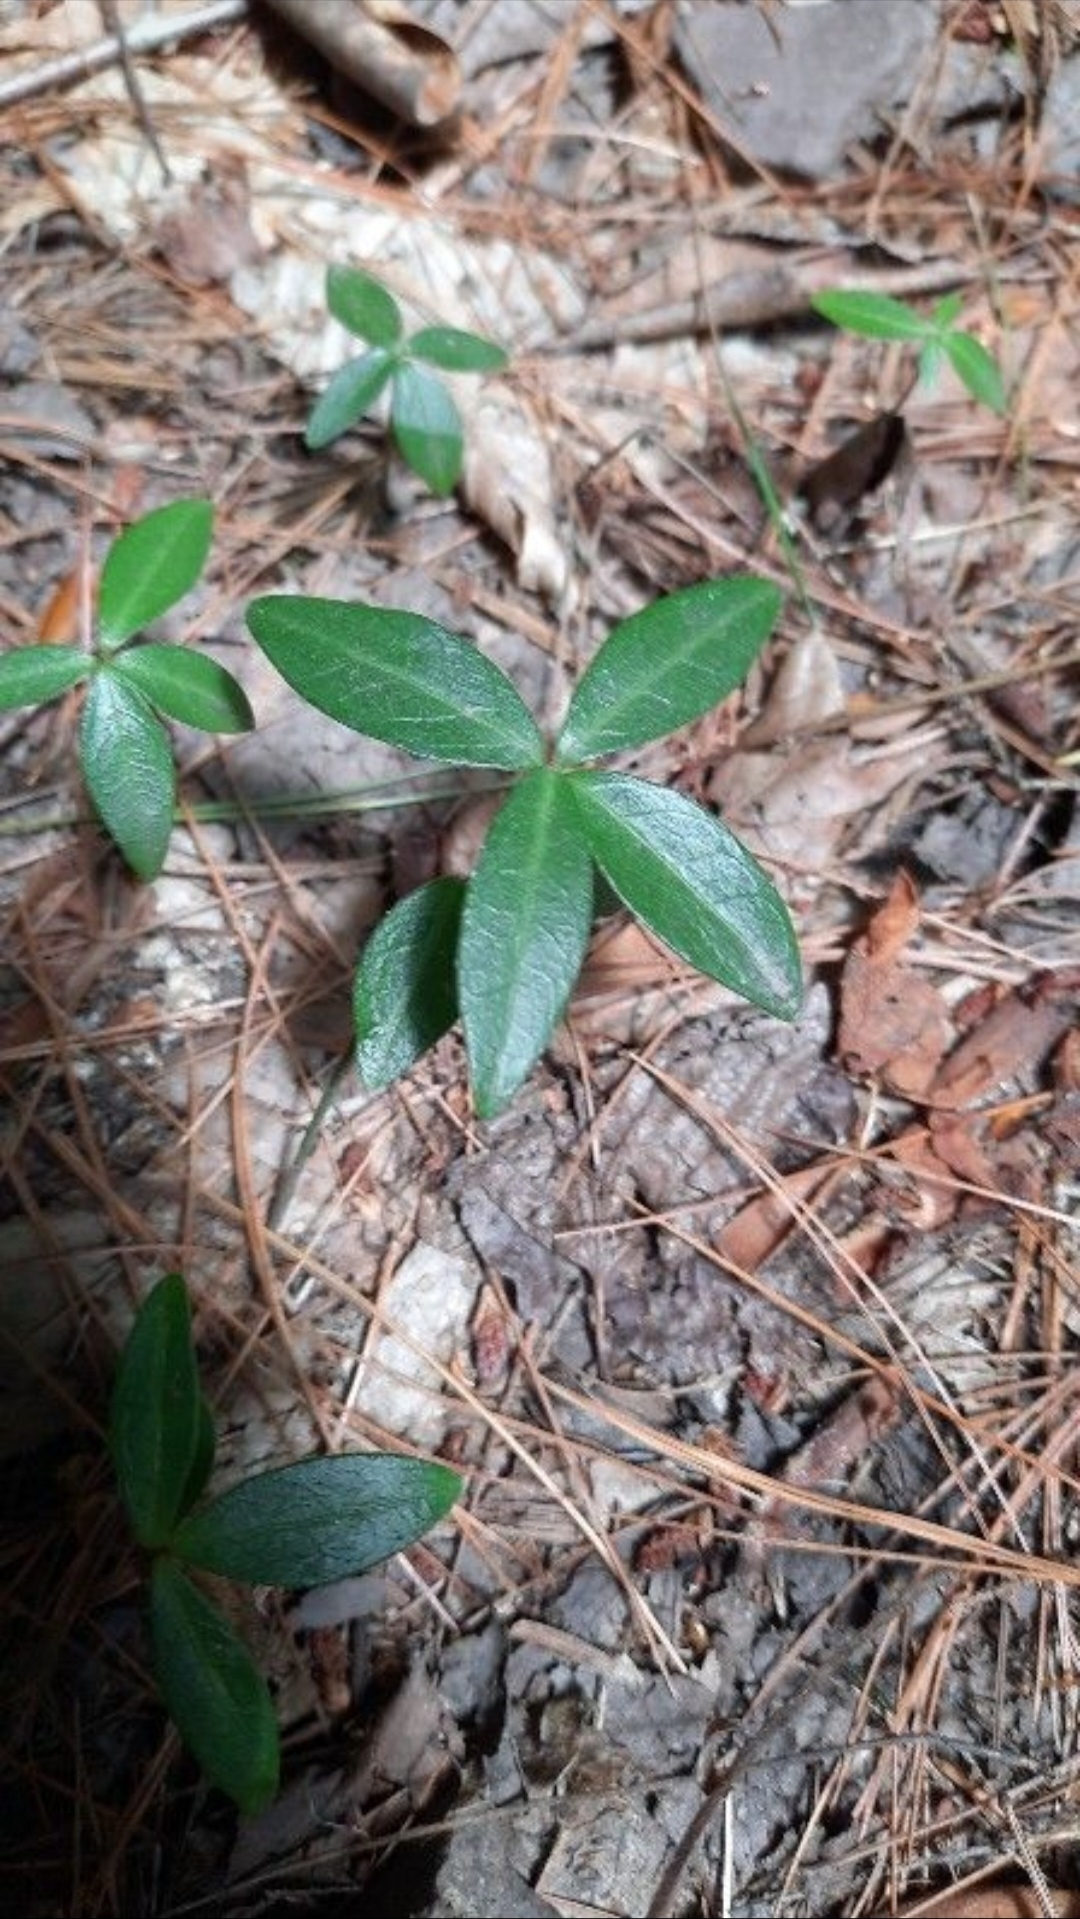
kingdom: Plantae
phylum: Tracheophyta
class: Magnoliopsida
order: Gentianales
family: Apocynaceae
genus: Vinca
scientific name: Vinca minor
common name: Lesser periwinkle
